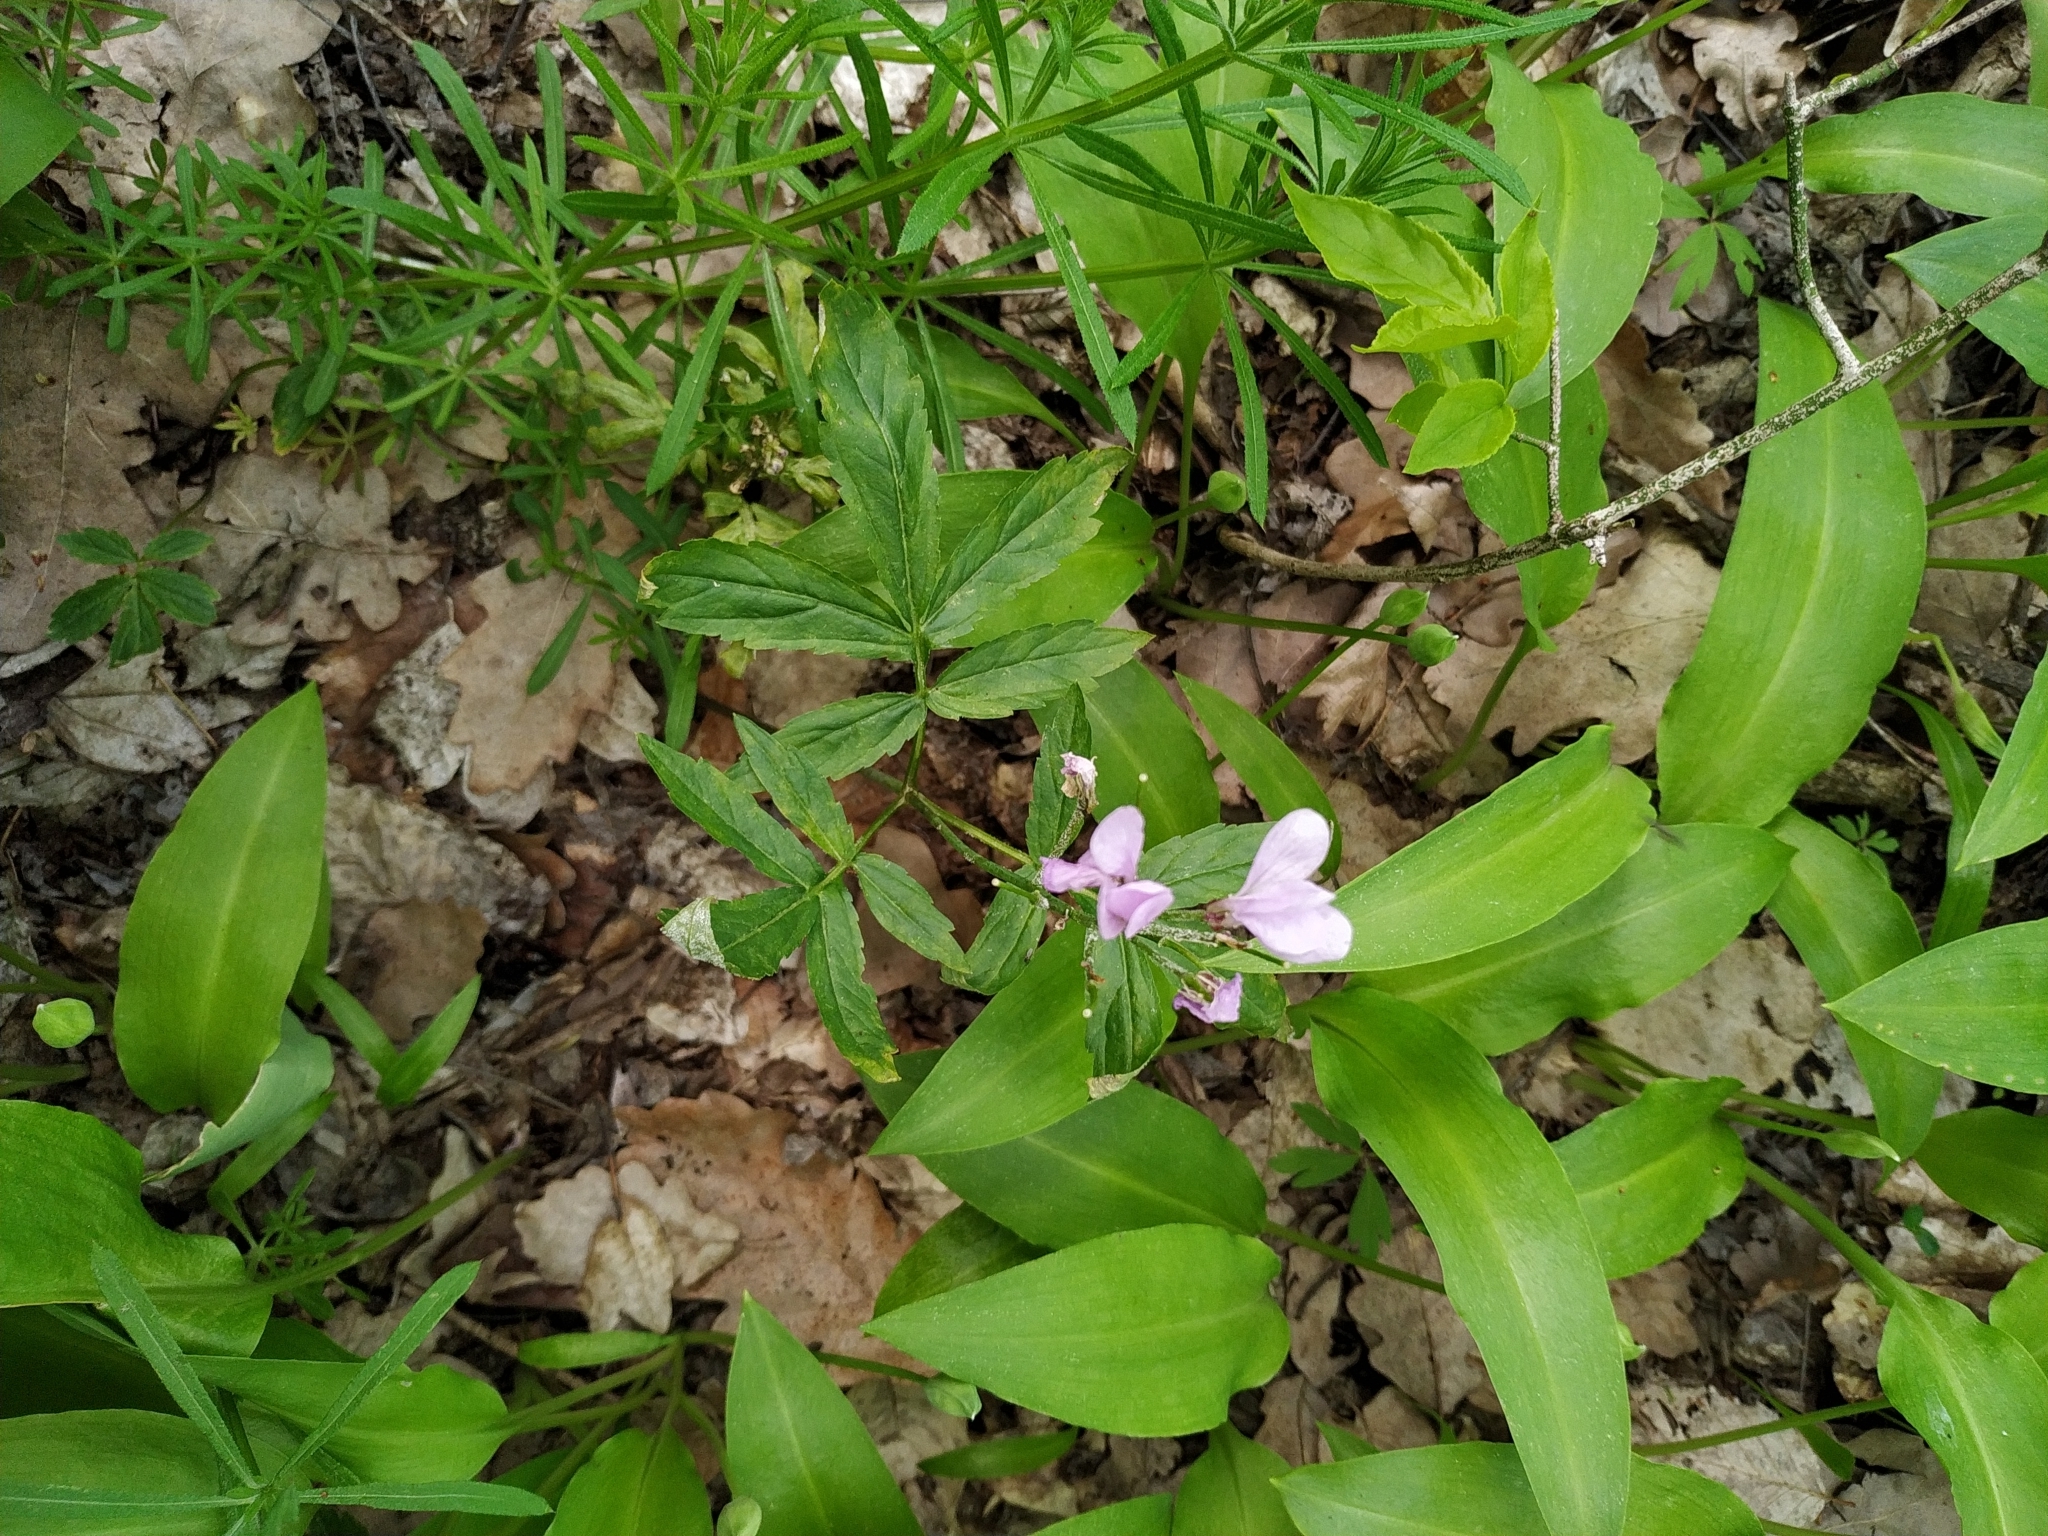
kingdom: Plantae
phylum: Tracheophyta
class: Magnoliopsida
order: Brassicales
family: Brassicaceae
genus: Cardamine
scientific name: Cardamine quinquefolia
